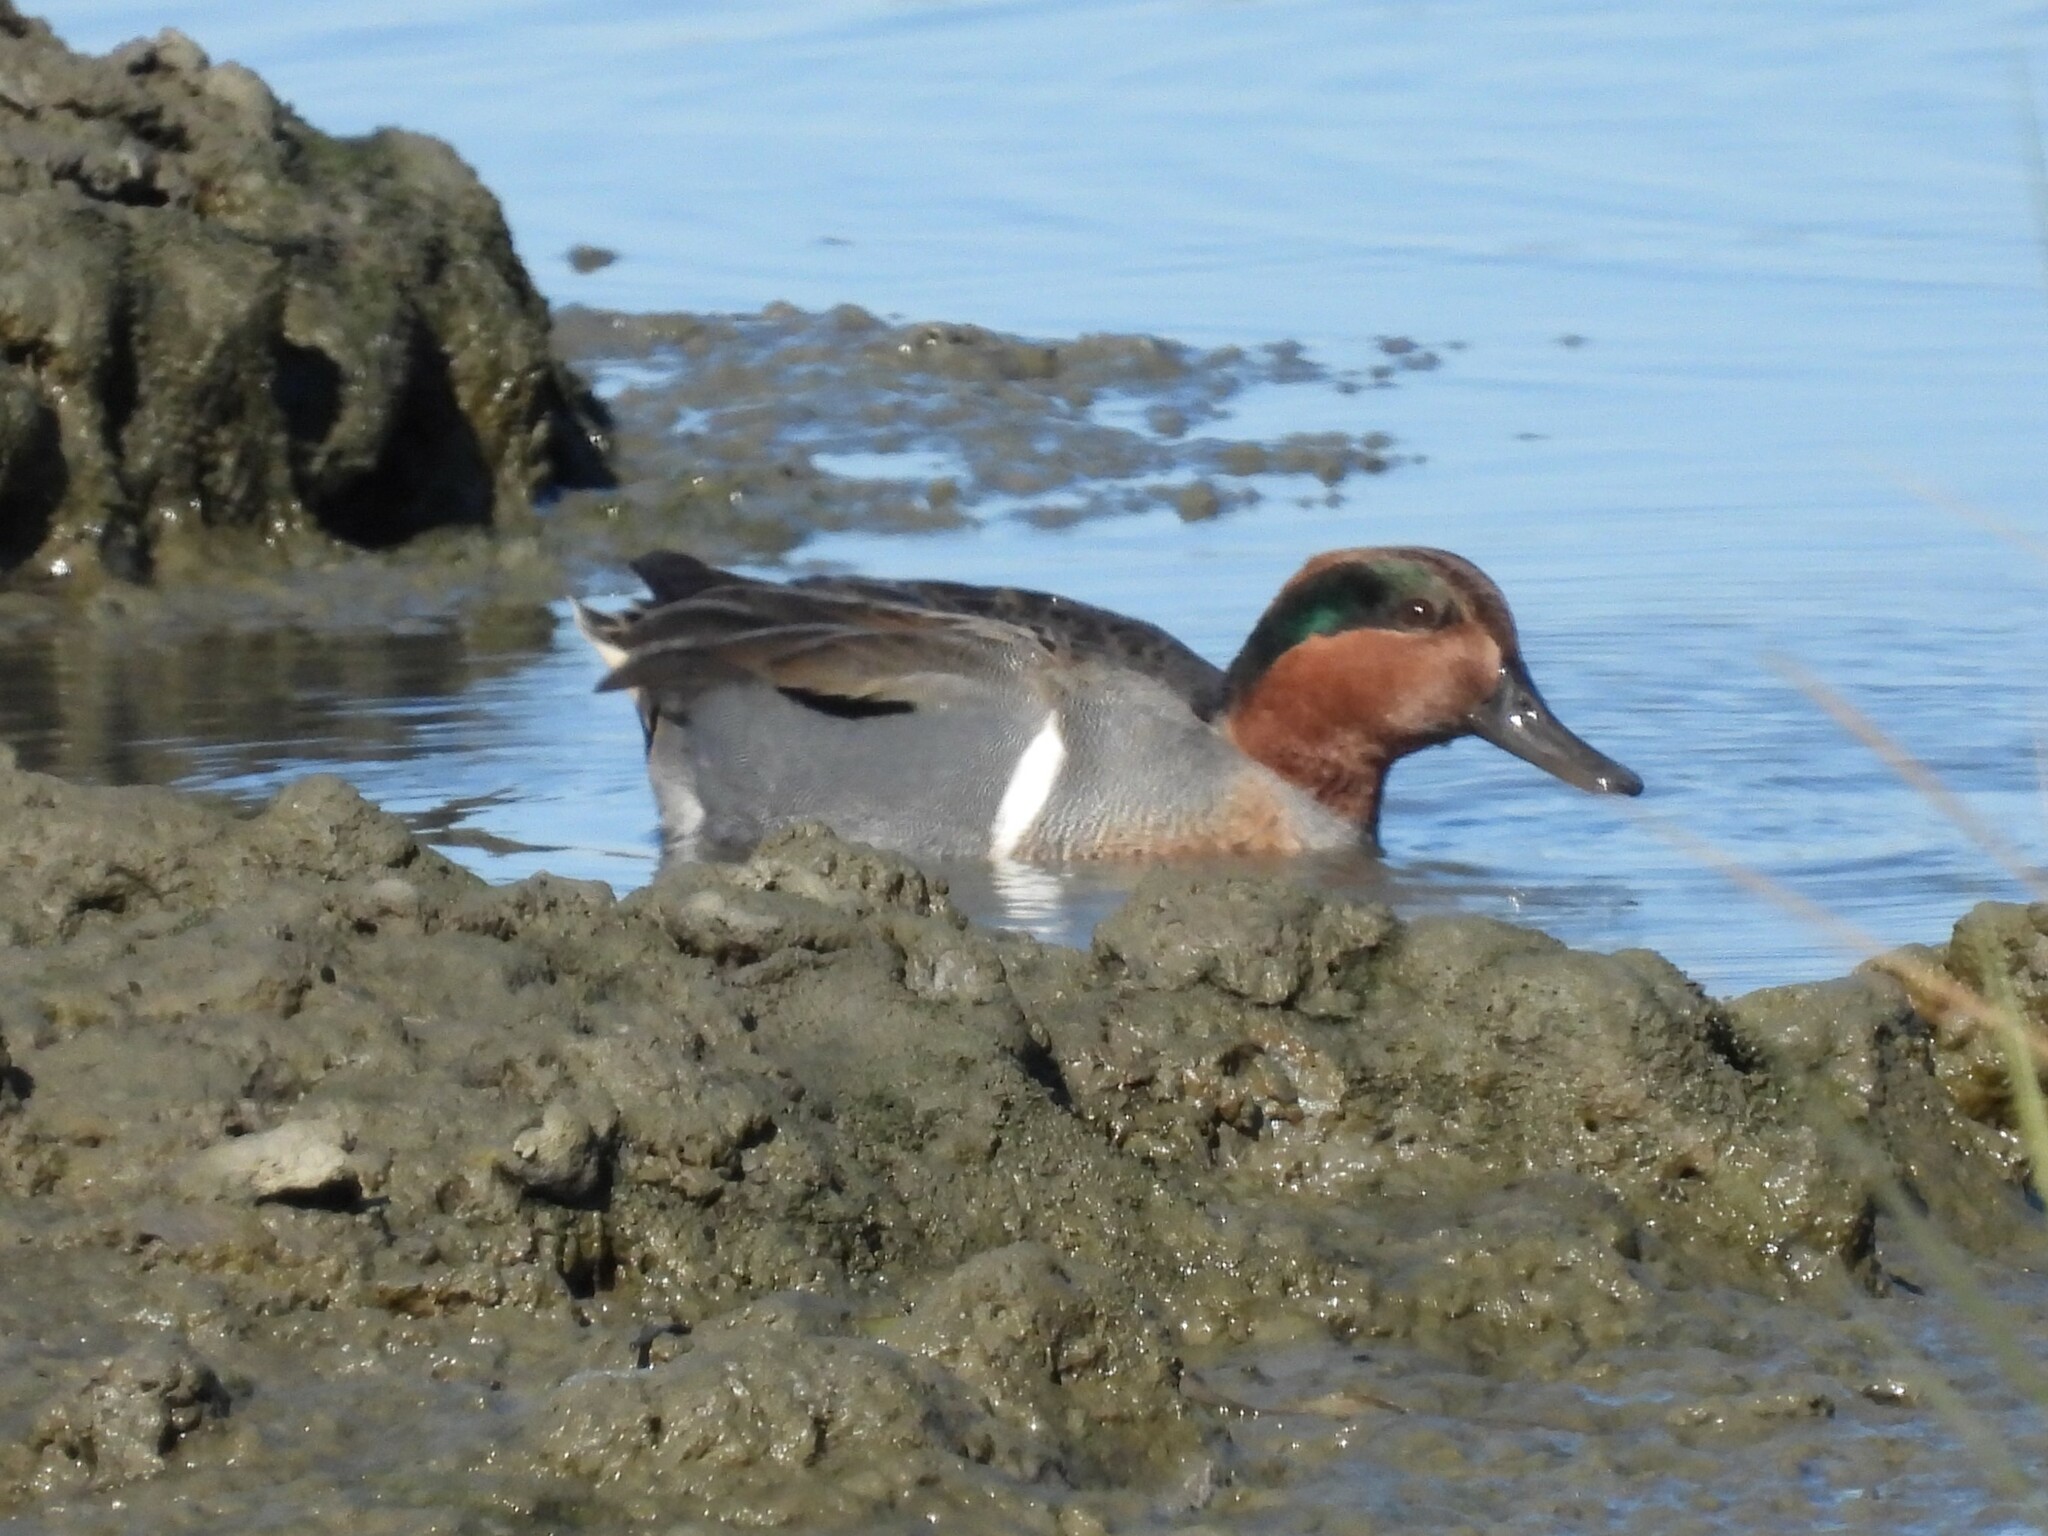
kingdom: Animalia
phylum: Chordata
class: Aves
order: Anseriformes
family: Anatidae
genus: Anas
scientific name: Anas crecca
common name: Eurasian teal
